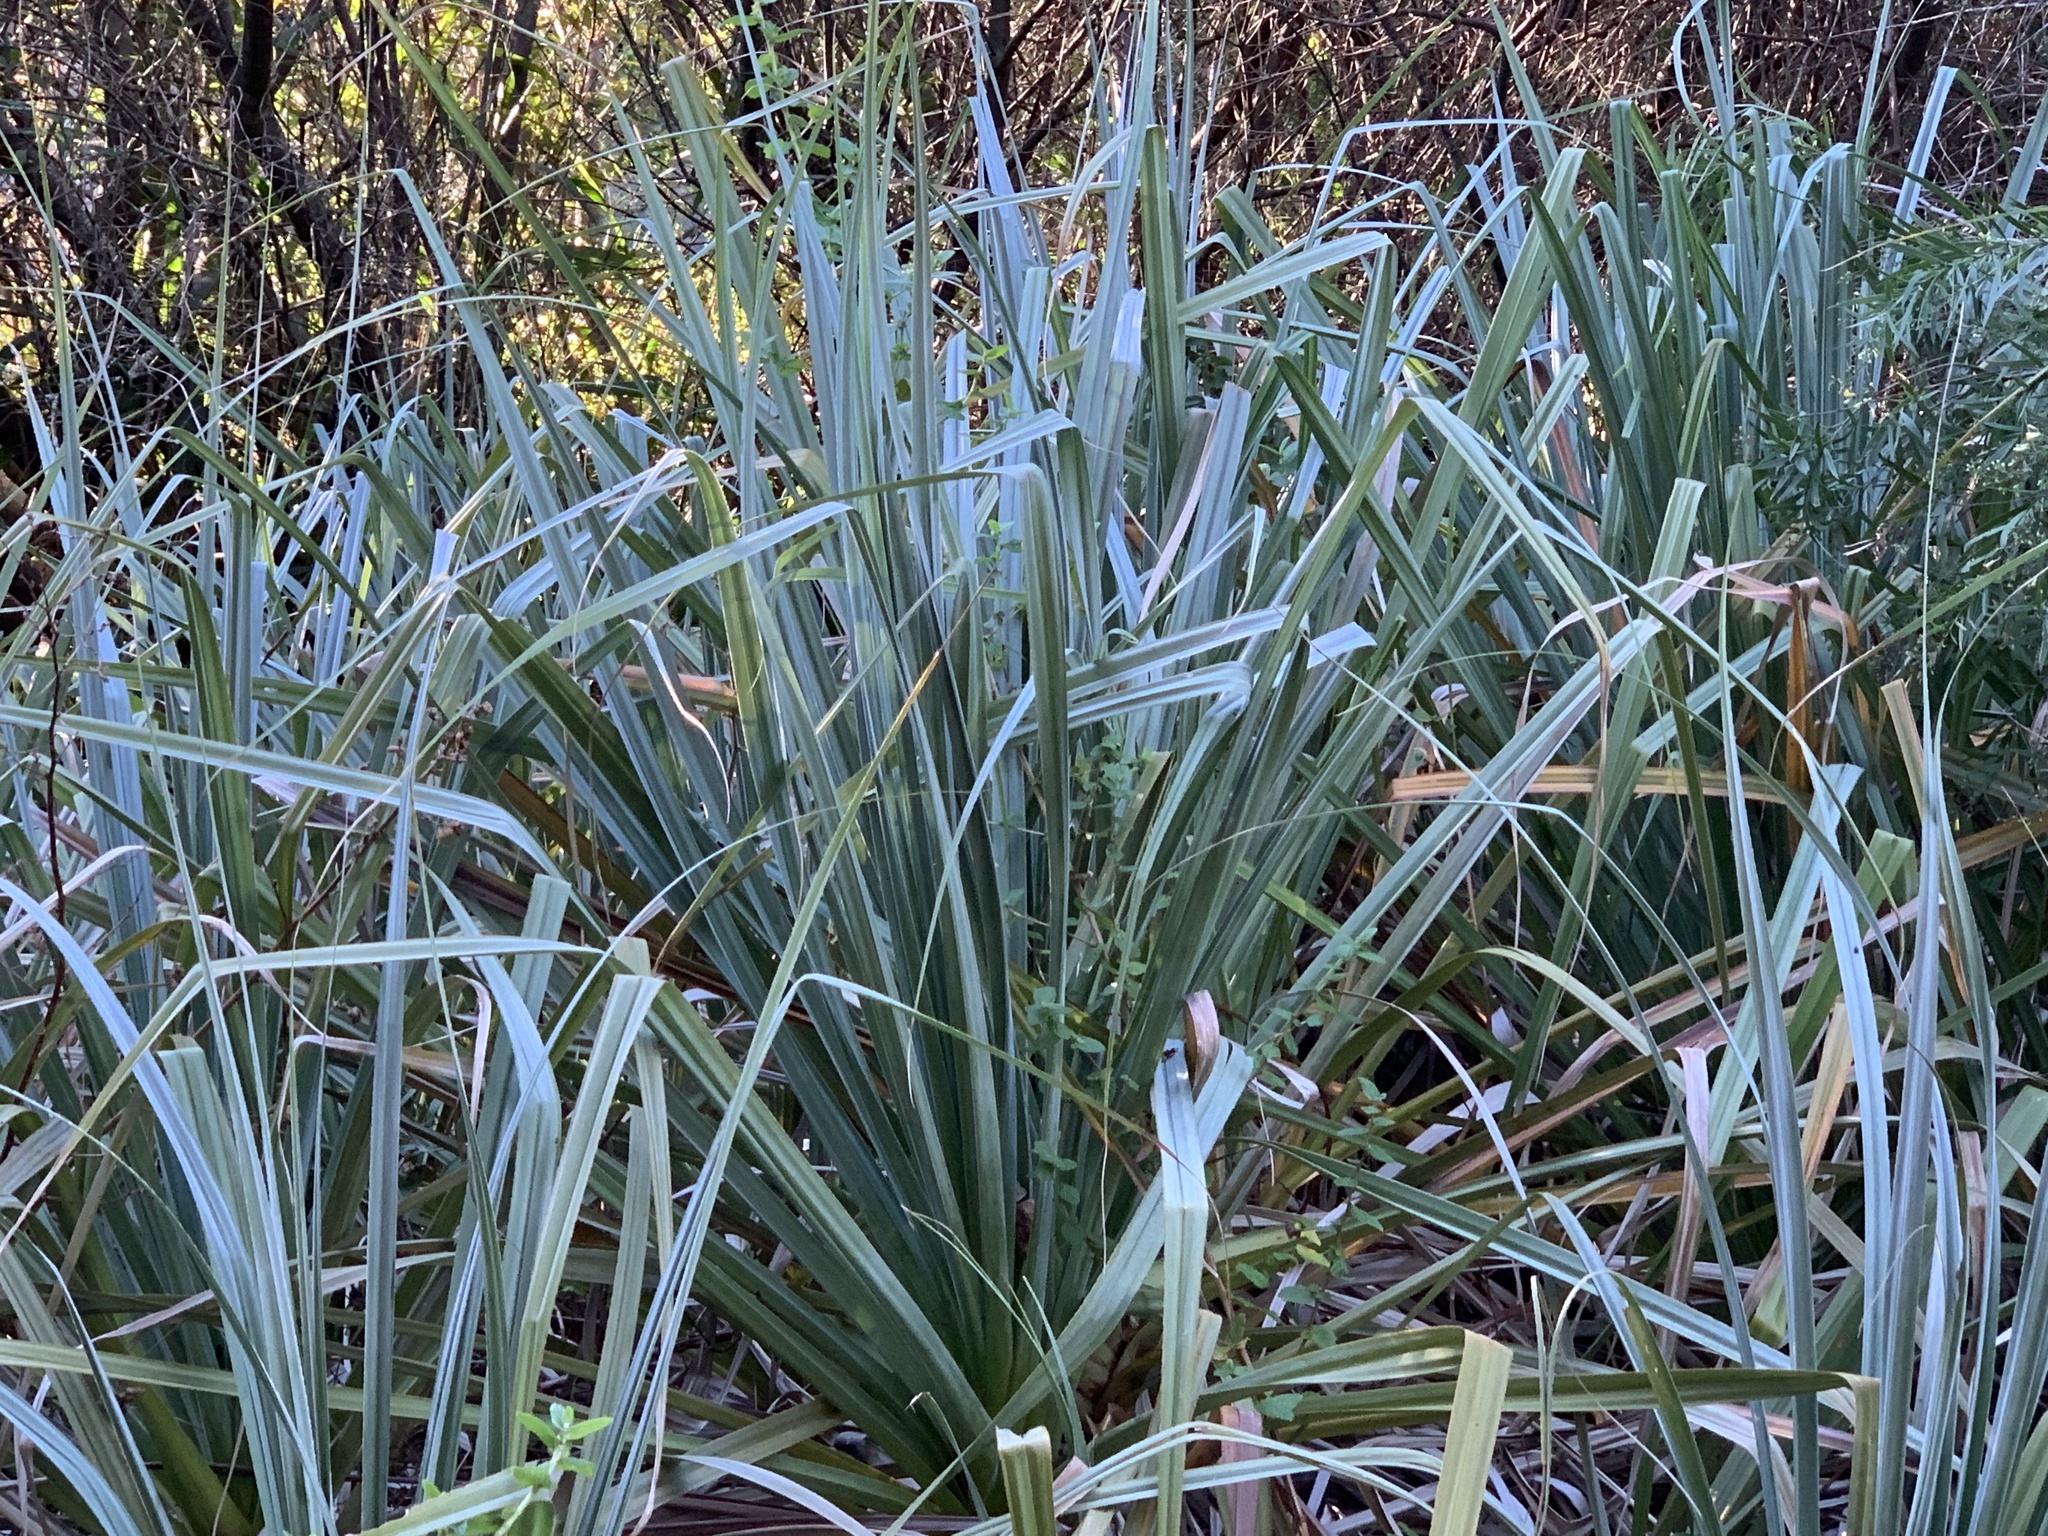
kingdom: Plantae
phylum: Tracheophyta
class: Liliopsida
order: Poales
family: Thurniaceae
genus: Prionium
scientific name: Prionium serratum
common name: Palmiet
